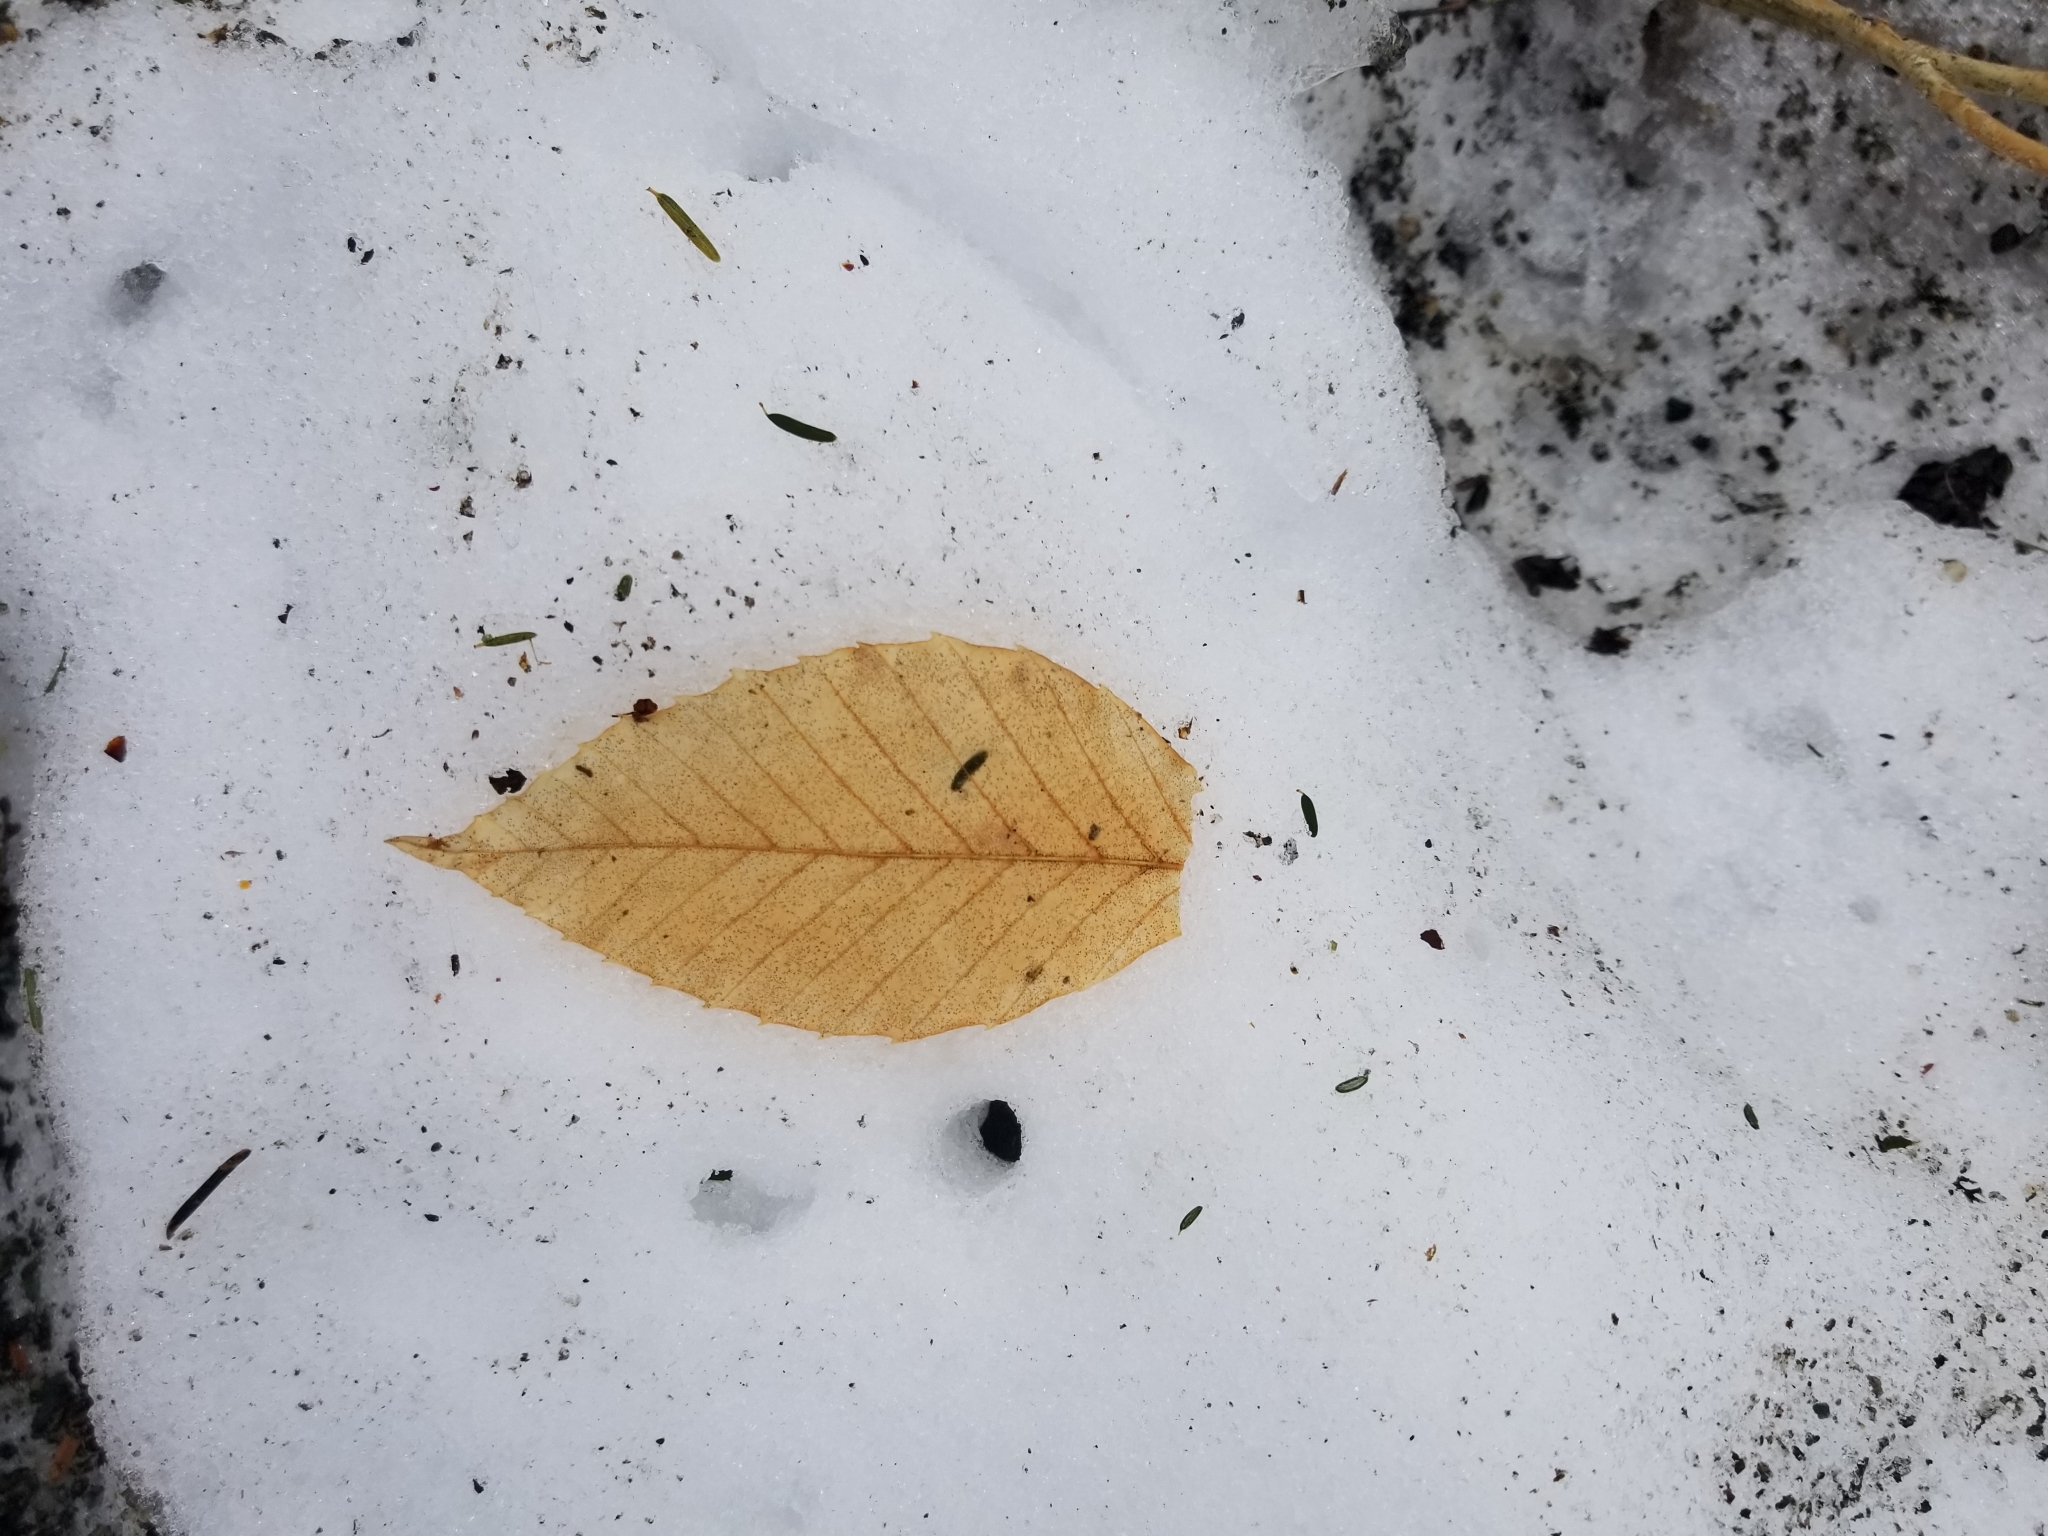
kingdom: Plantae
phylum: Tracheophyta
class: Magnoliopsida
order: Fagales
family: Fagaceae
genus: Fagus
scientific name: Fagus grandifolia
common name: American beech
